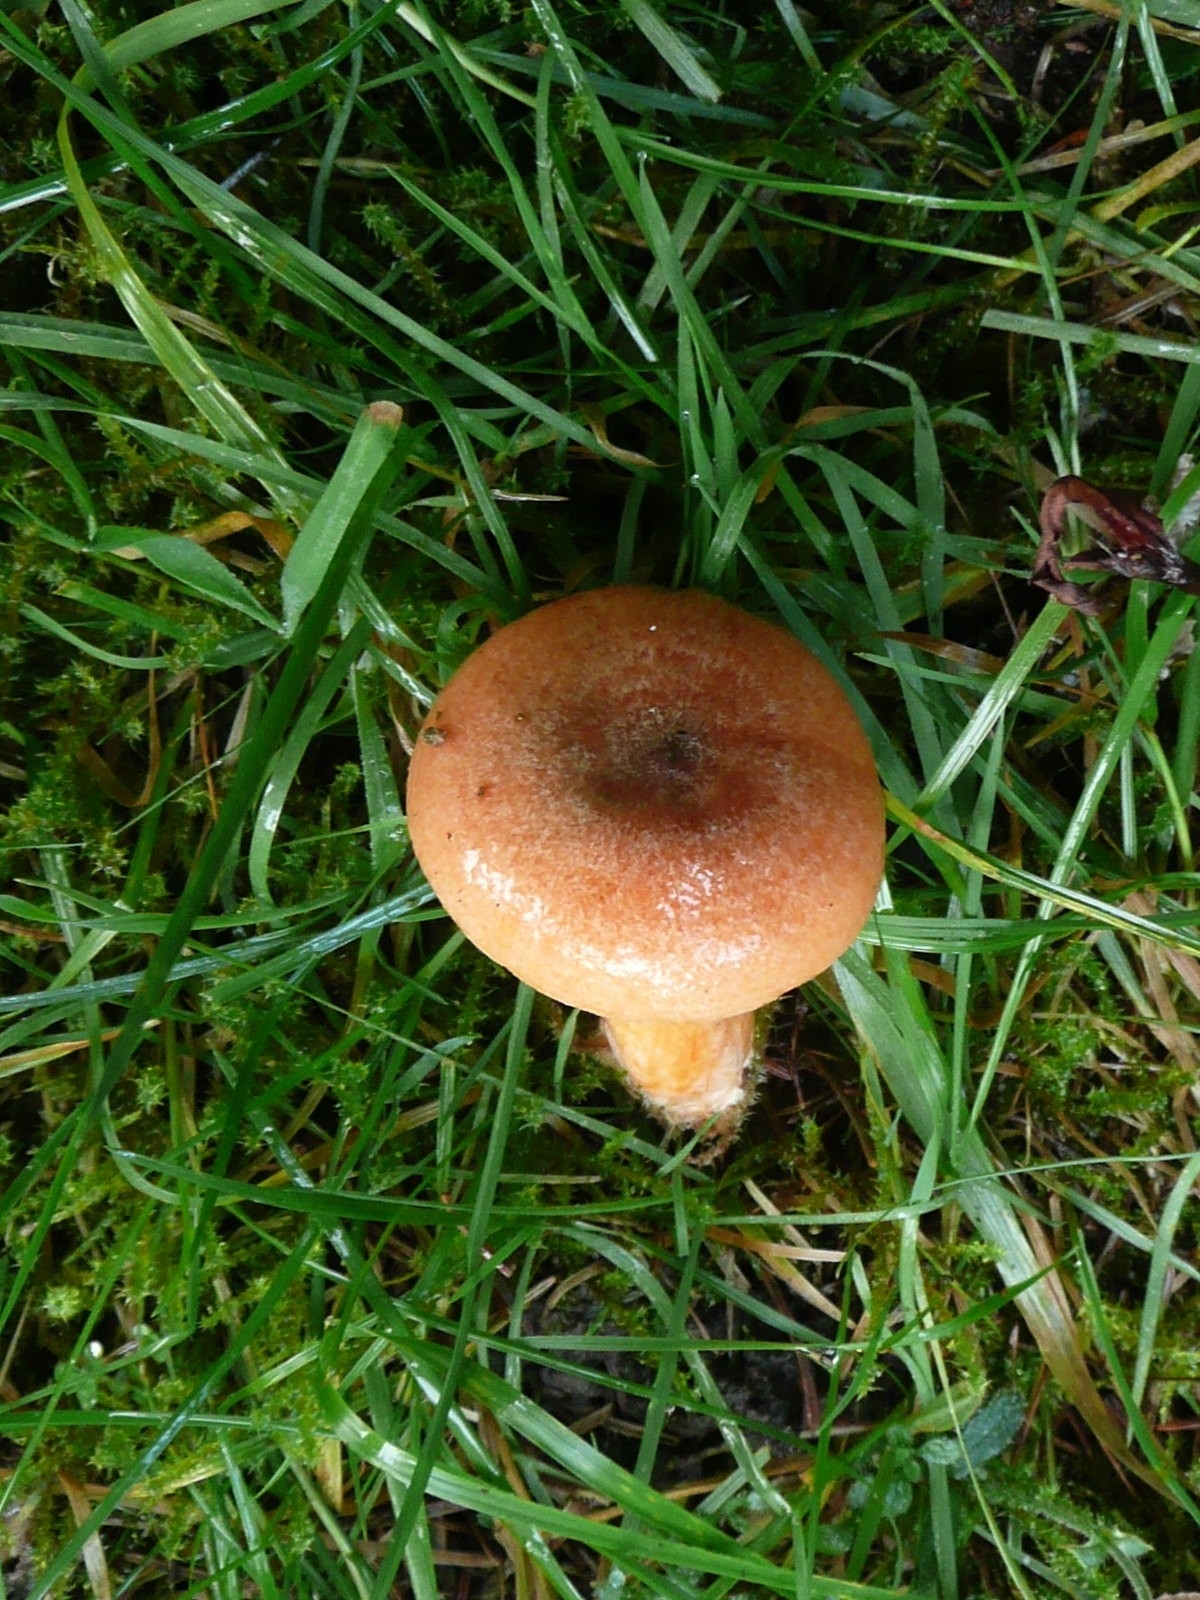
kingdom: Fungi
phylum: Basidiomycota
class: Agaricomycetes
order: Russulales
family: Russulaceae
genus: Lactarius
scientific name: Lactarius deterrimus
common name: False saffron milkcap
